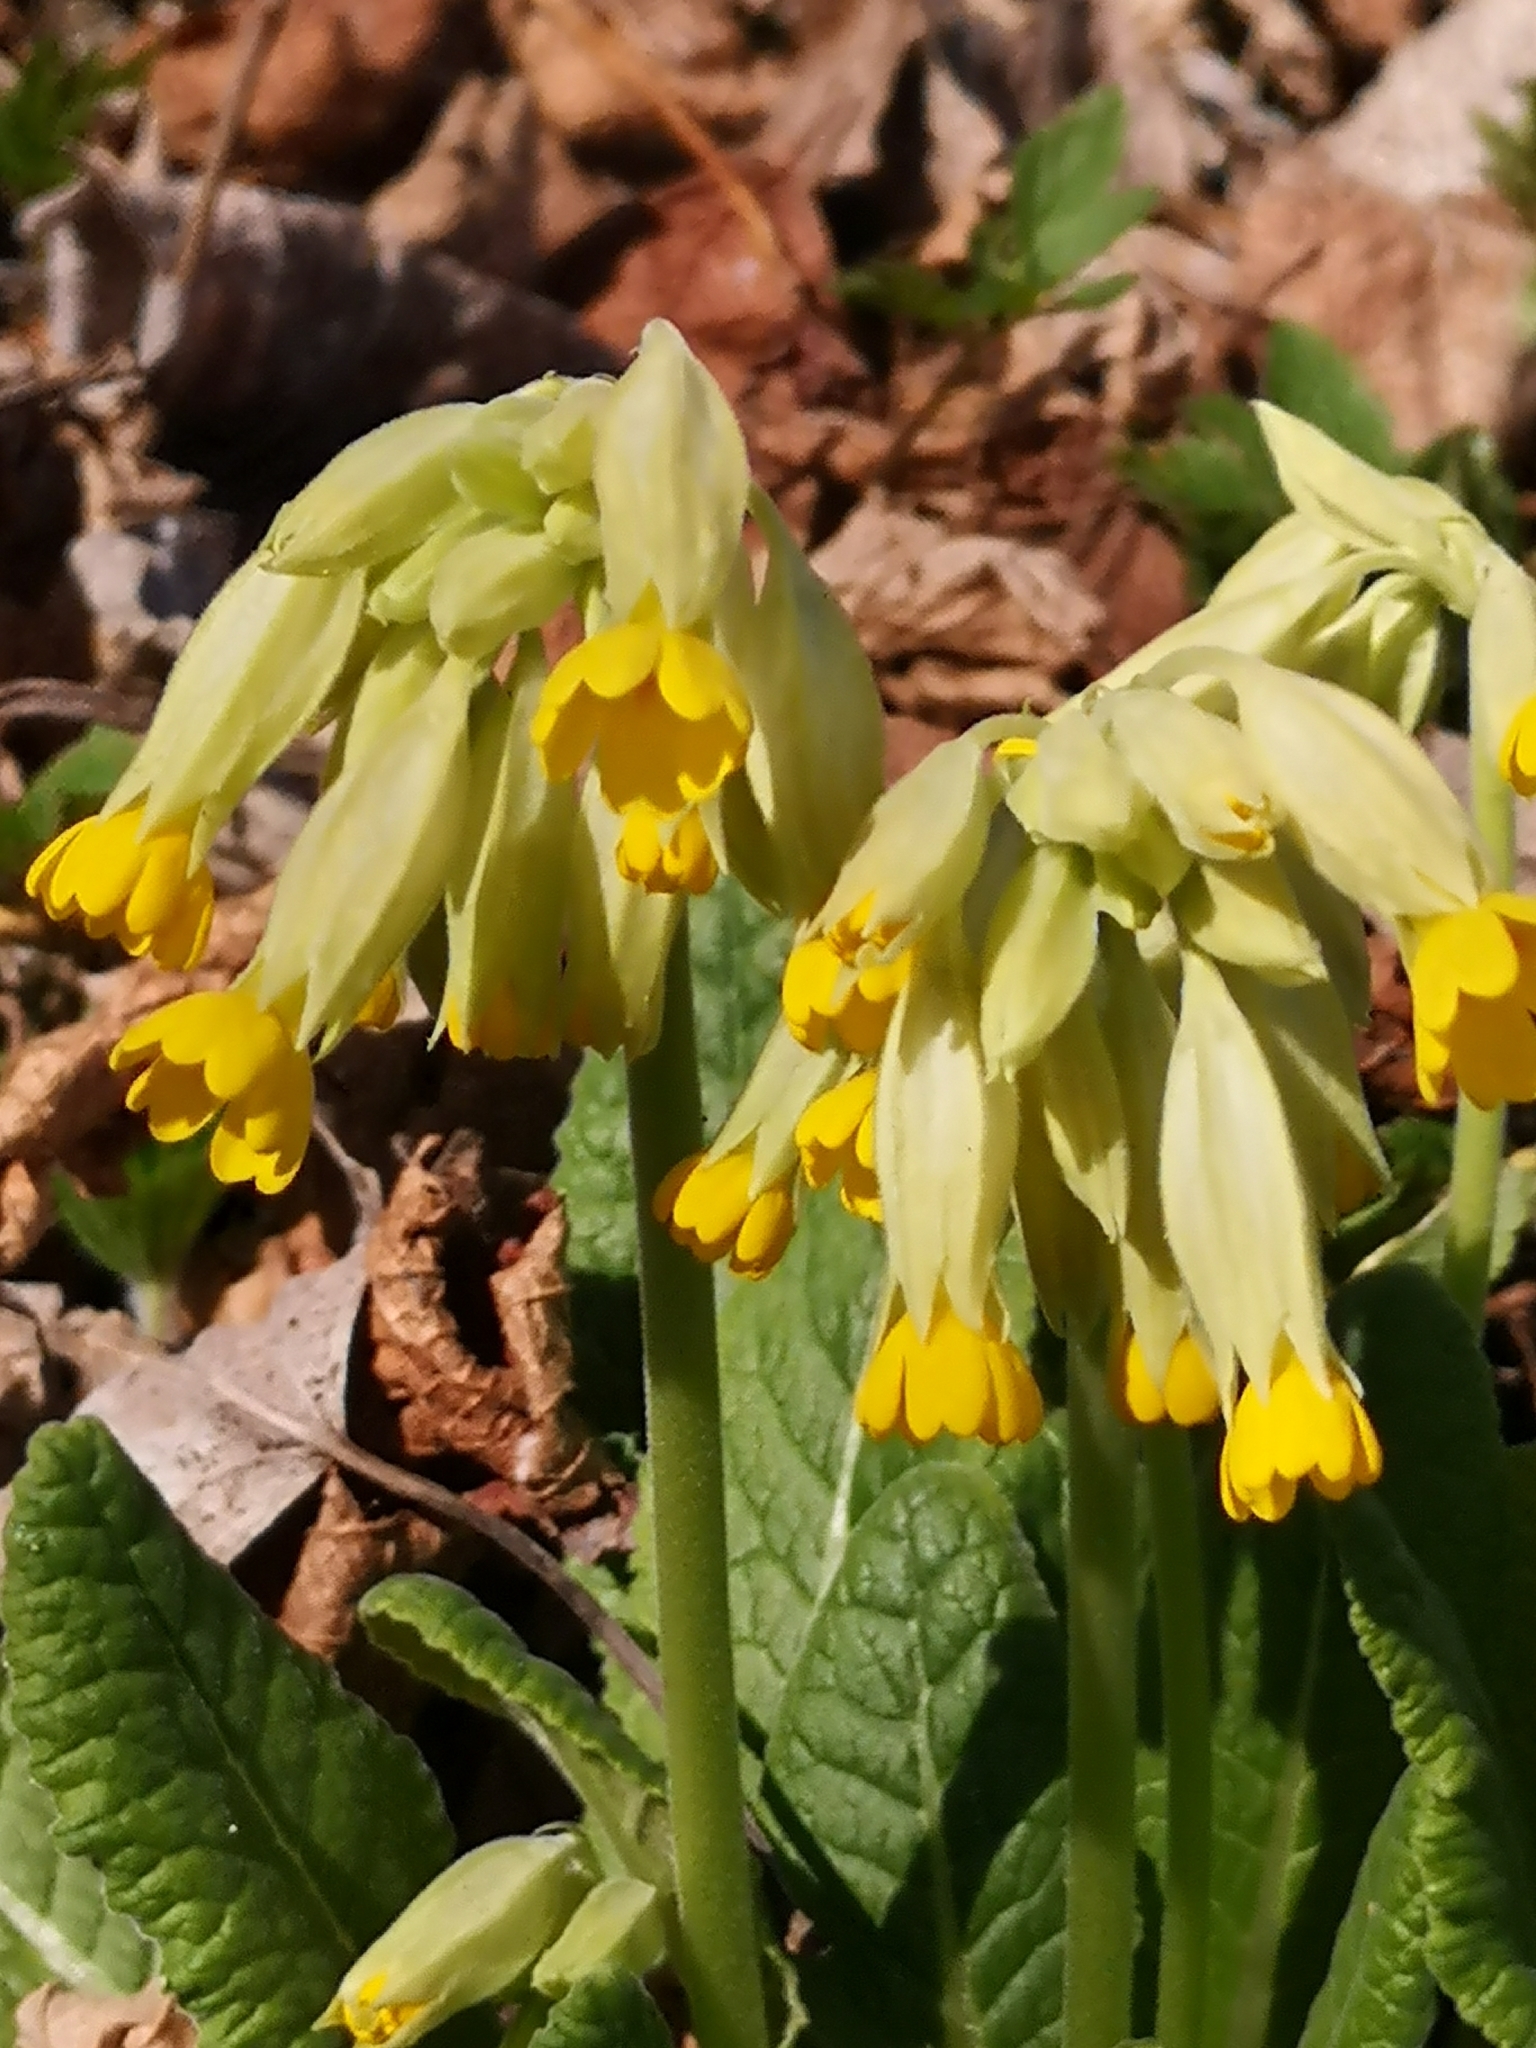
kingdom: Plantae
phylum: Tracheophyta
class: Magnoliopsida
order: Ericales
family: Primulaceae
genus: Primula
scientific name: Primula veris
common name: Cowslip
